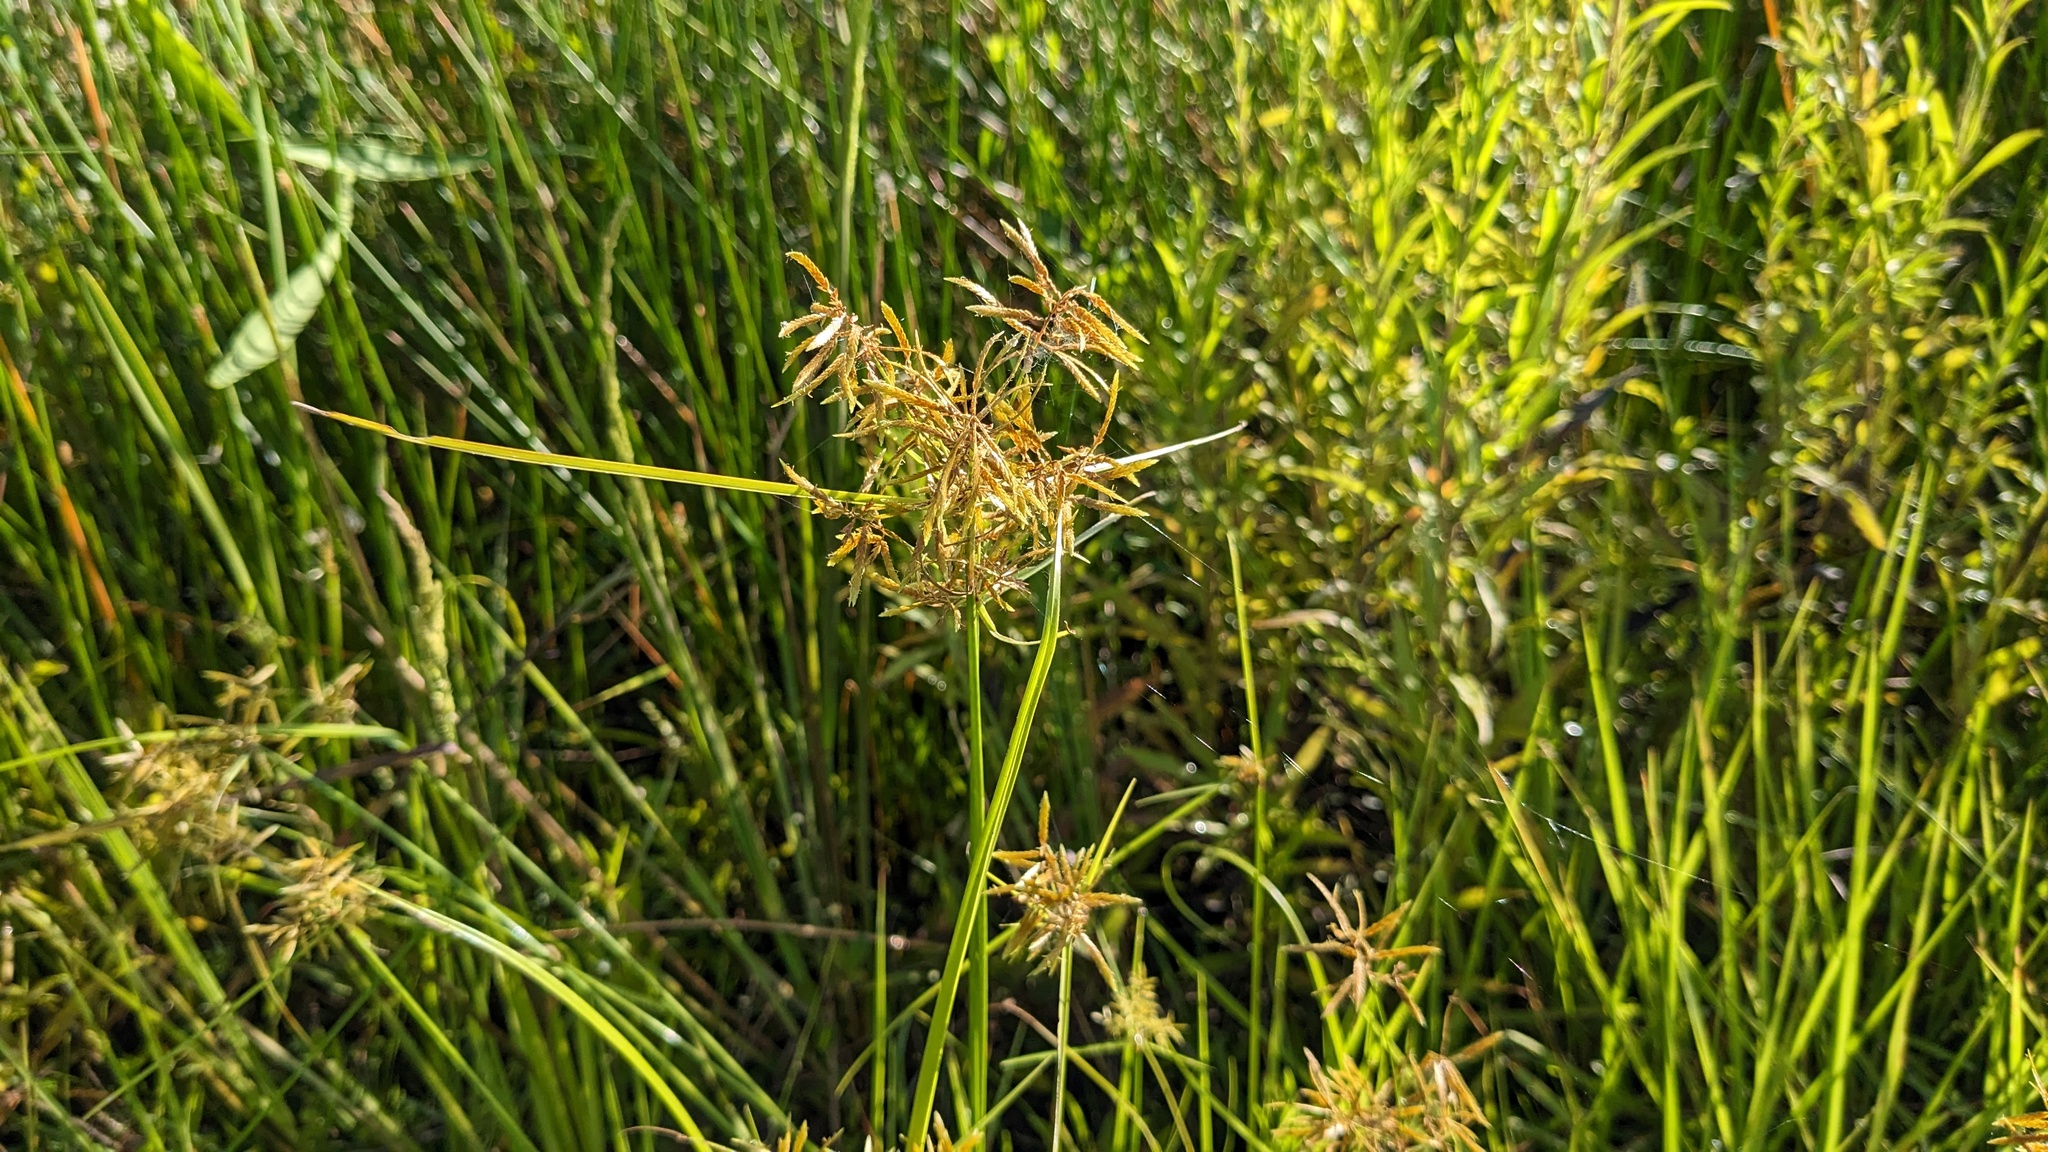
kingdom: Plantae
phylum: Tracheophyta
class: Liliopsida
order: Poales
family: Cyperaceae
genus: Cyperus
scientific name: Cyperus polystachyos
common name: Bunchy flat sedge
